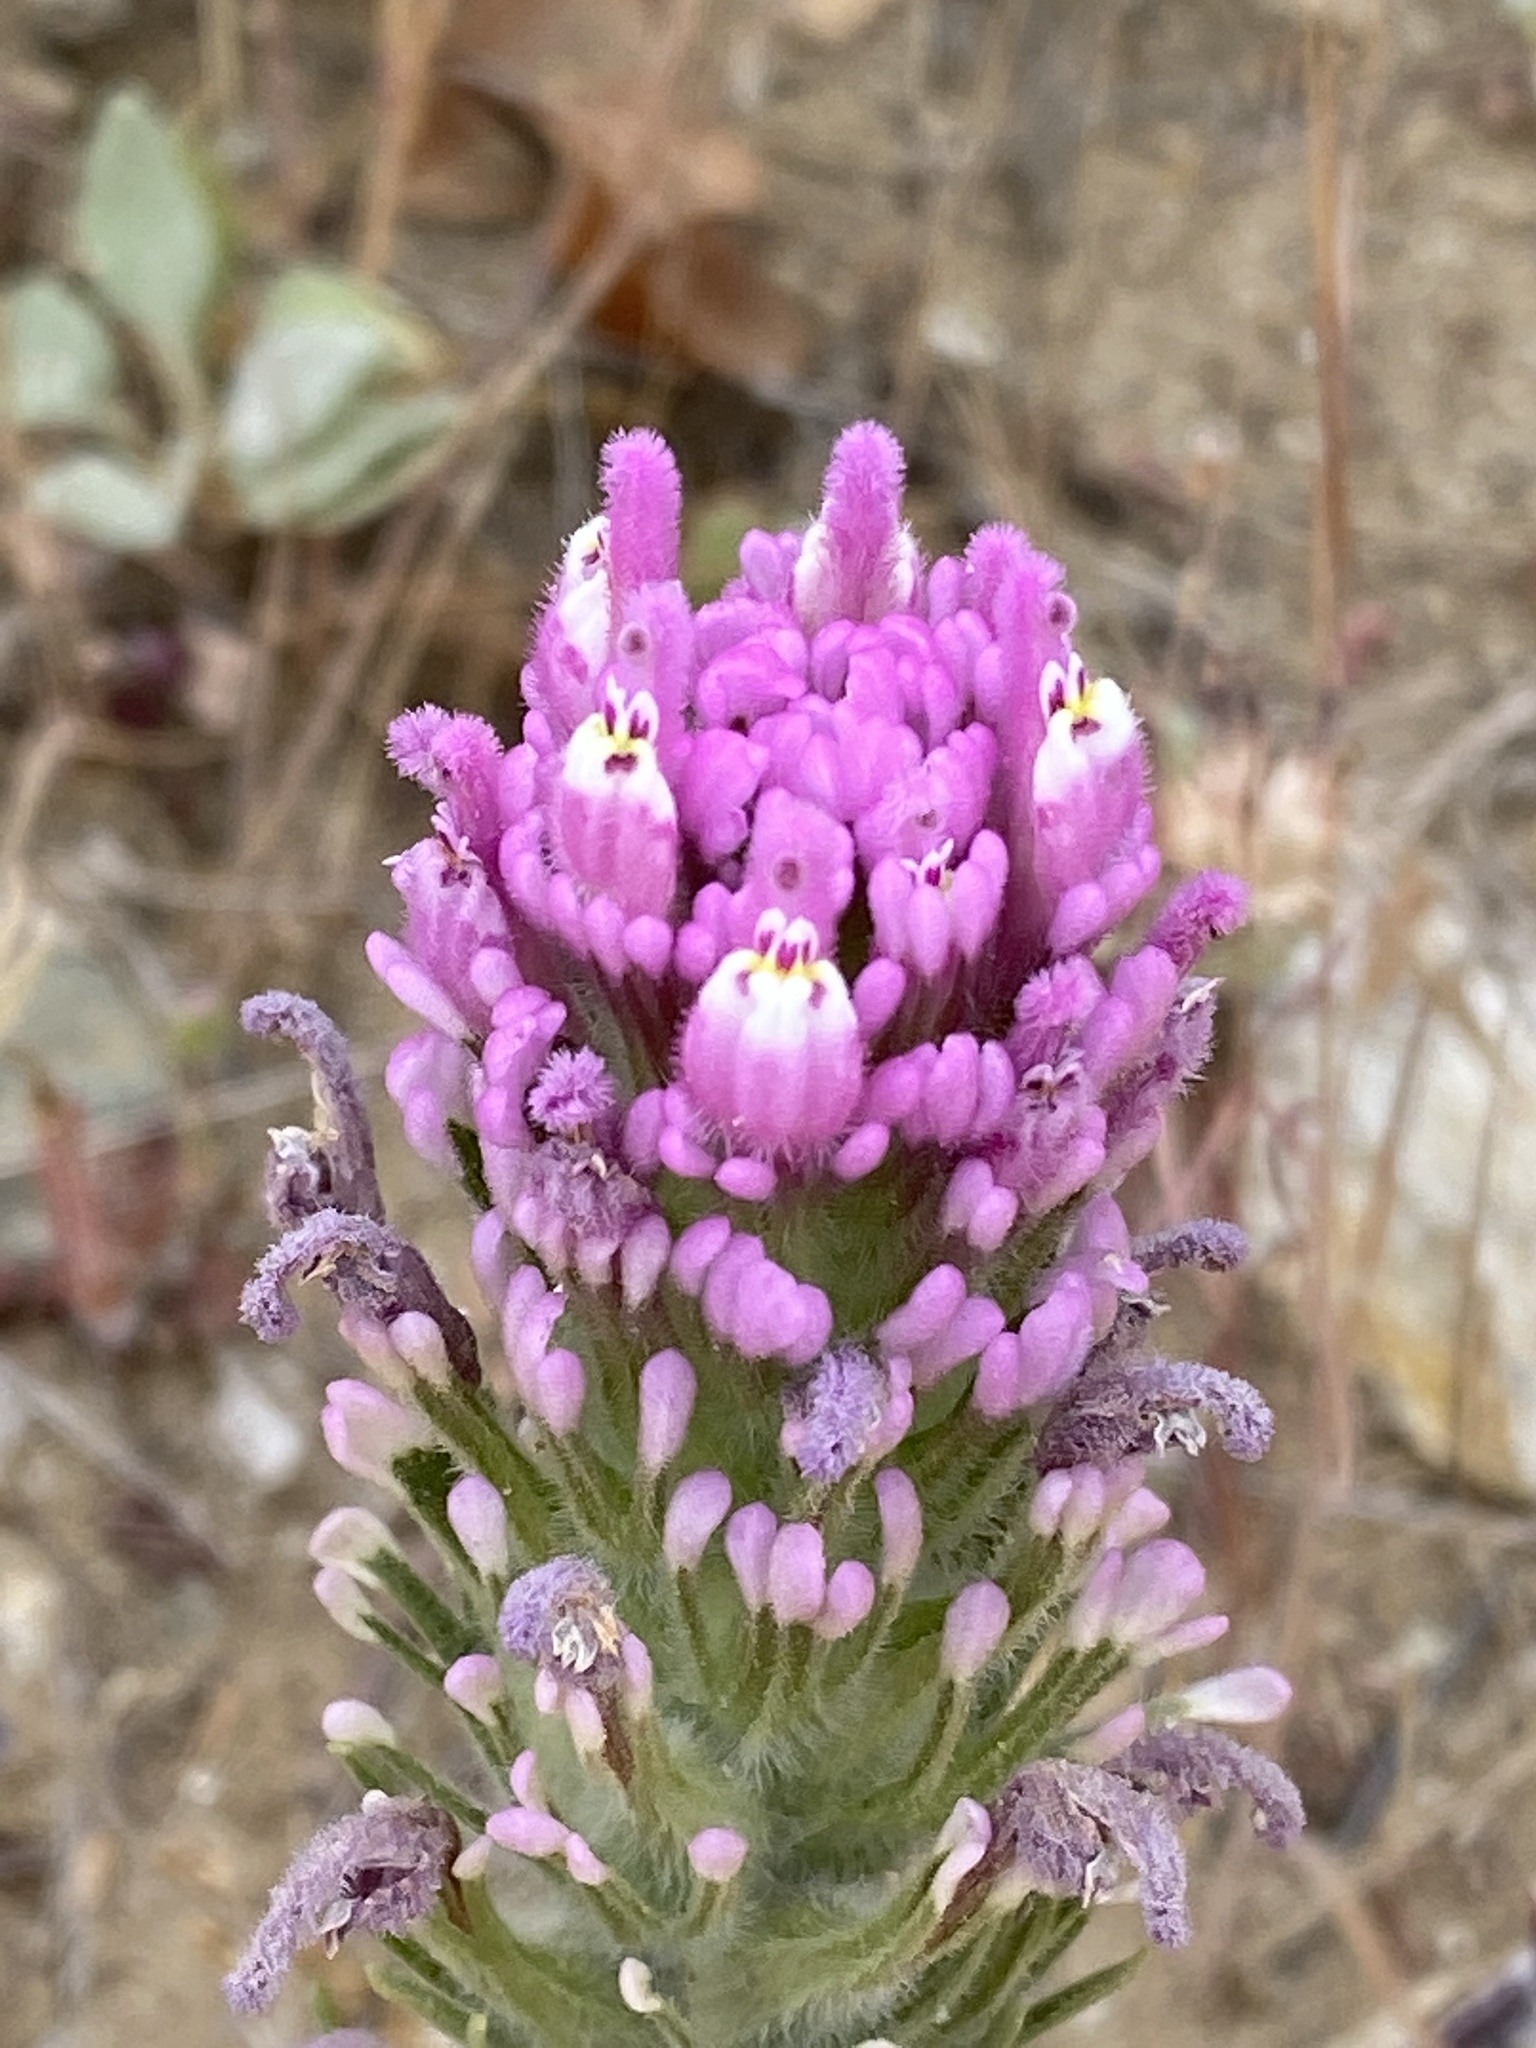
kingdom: Plantae
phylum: Tracheophyta
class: Magnoliopsida
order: Lamiales
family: Orobanchaceae
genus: Castilleja
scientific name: Castilleja exserta
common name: Purple owl-clover
